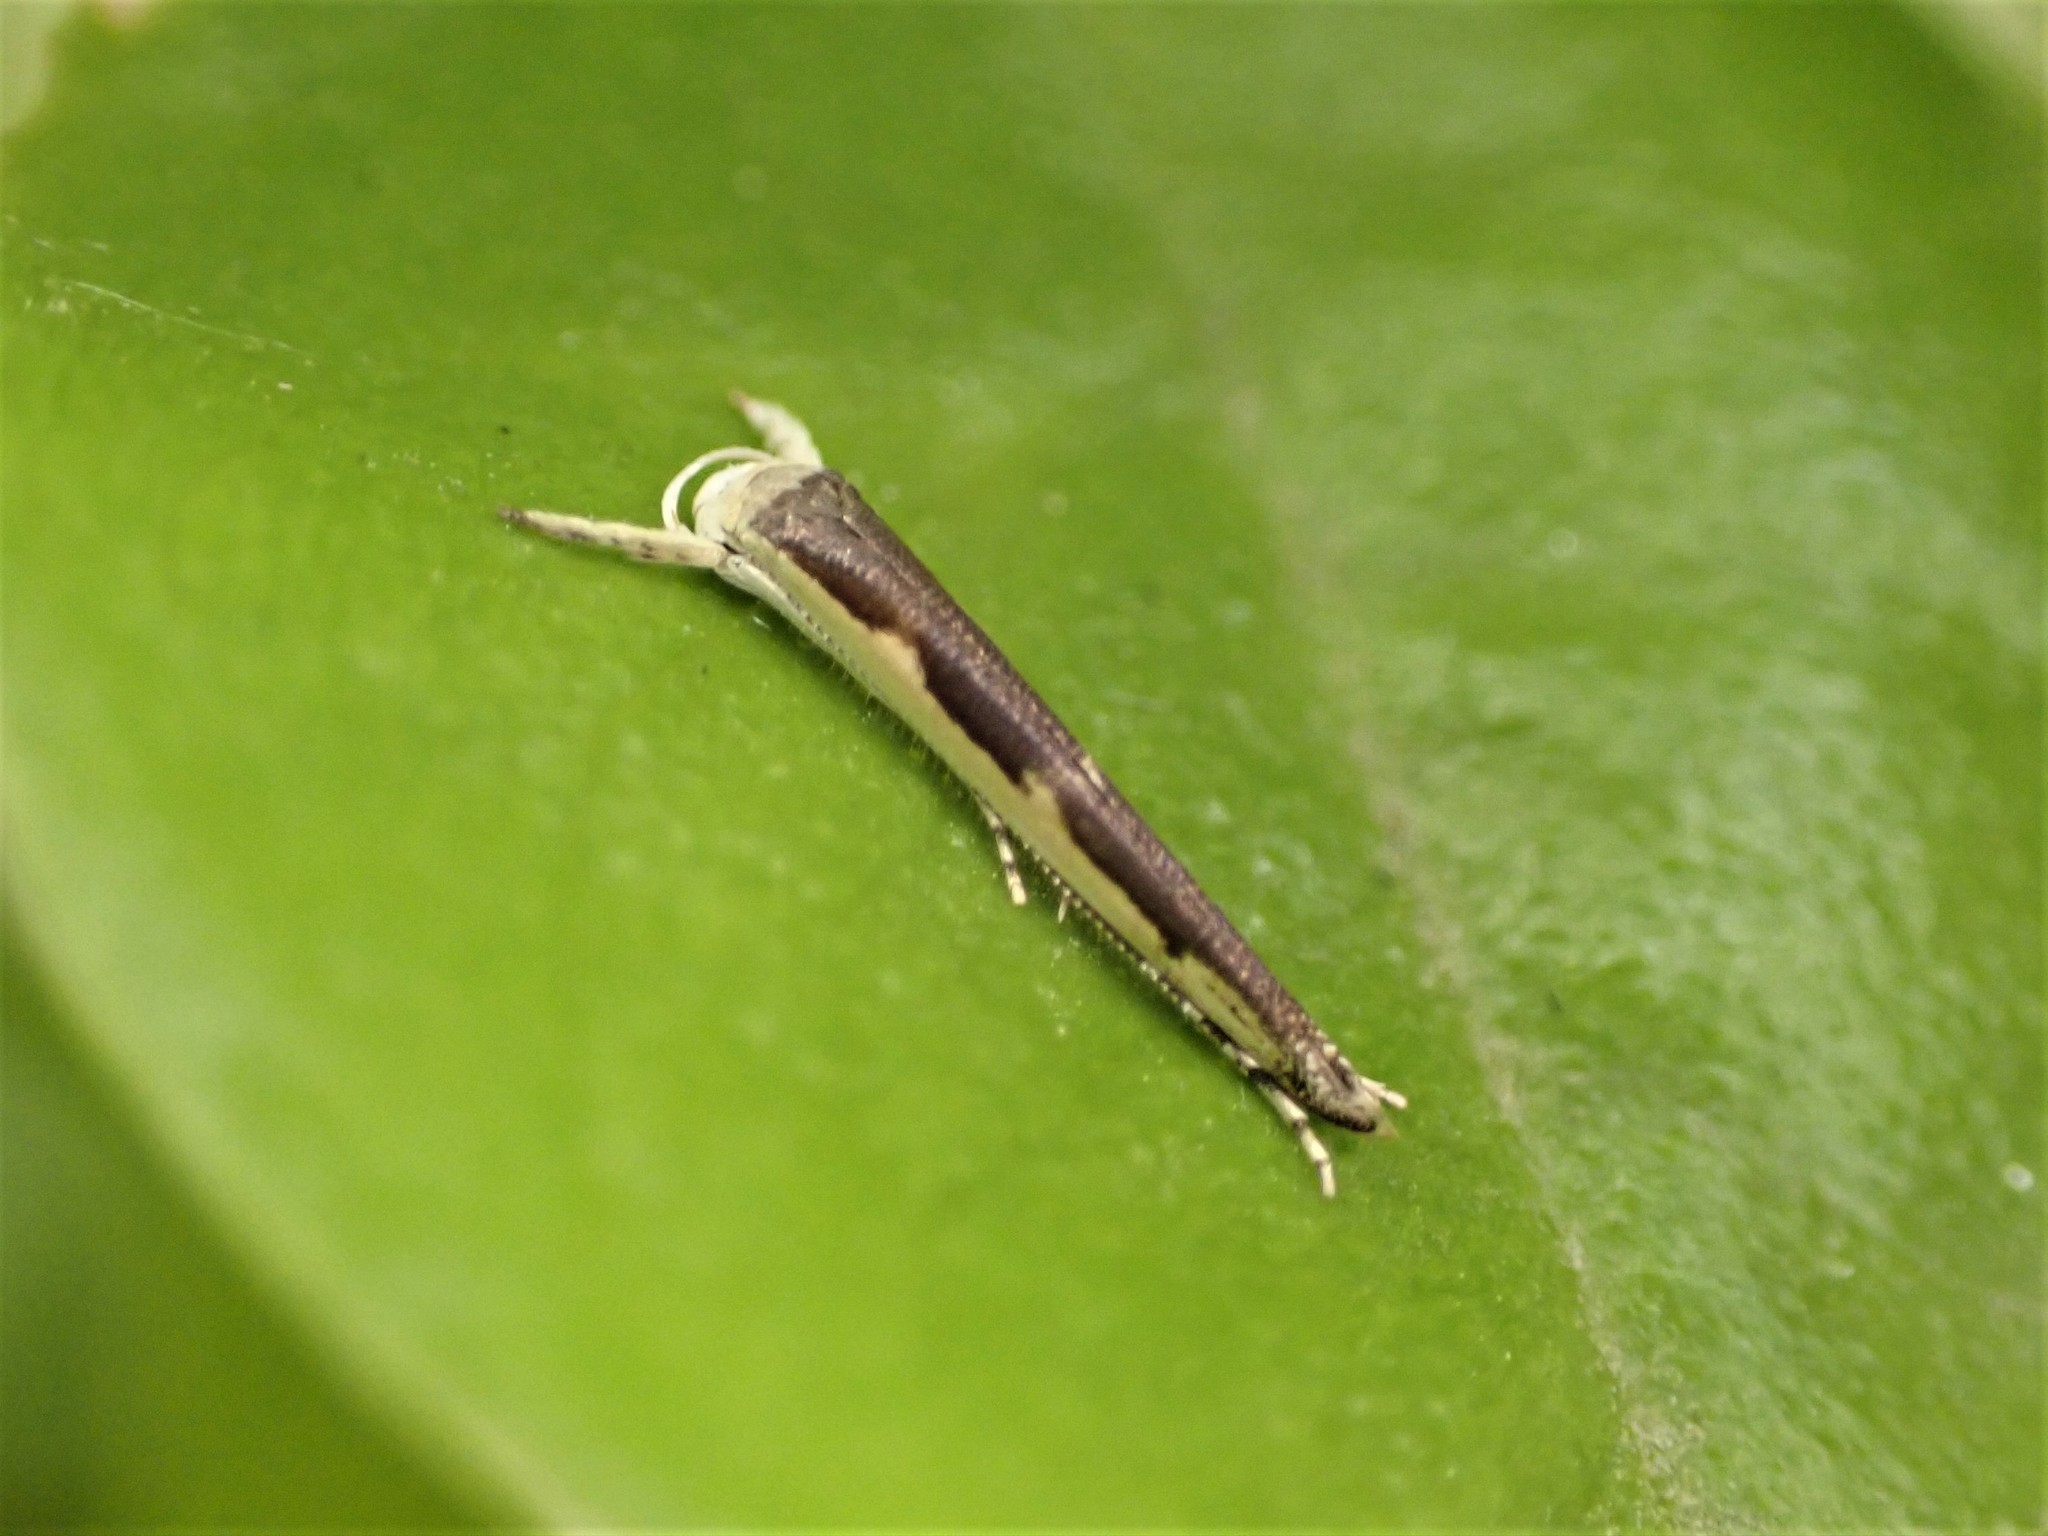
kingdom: Animalia
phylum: Arthropoda
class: Insecta
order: Lepidoptera
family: Roeslerstammiidae
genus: Vanicela
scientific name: Vanicela disjunctella
